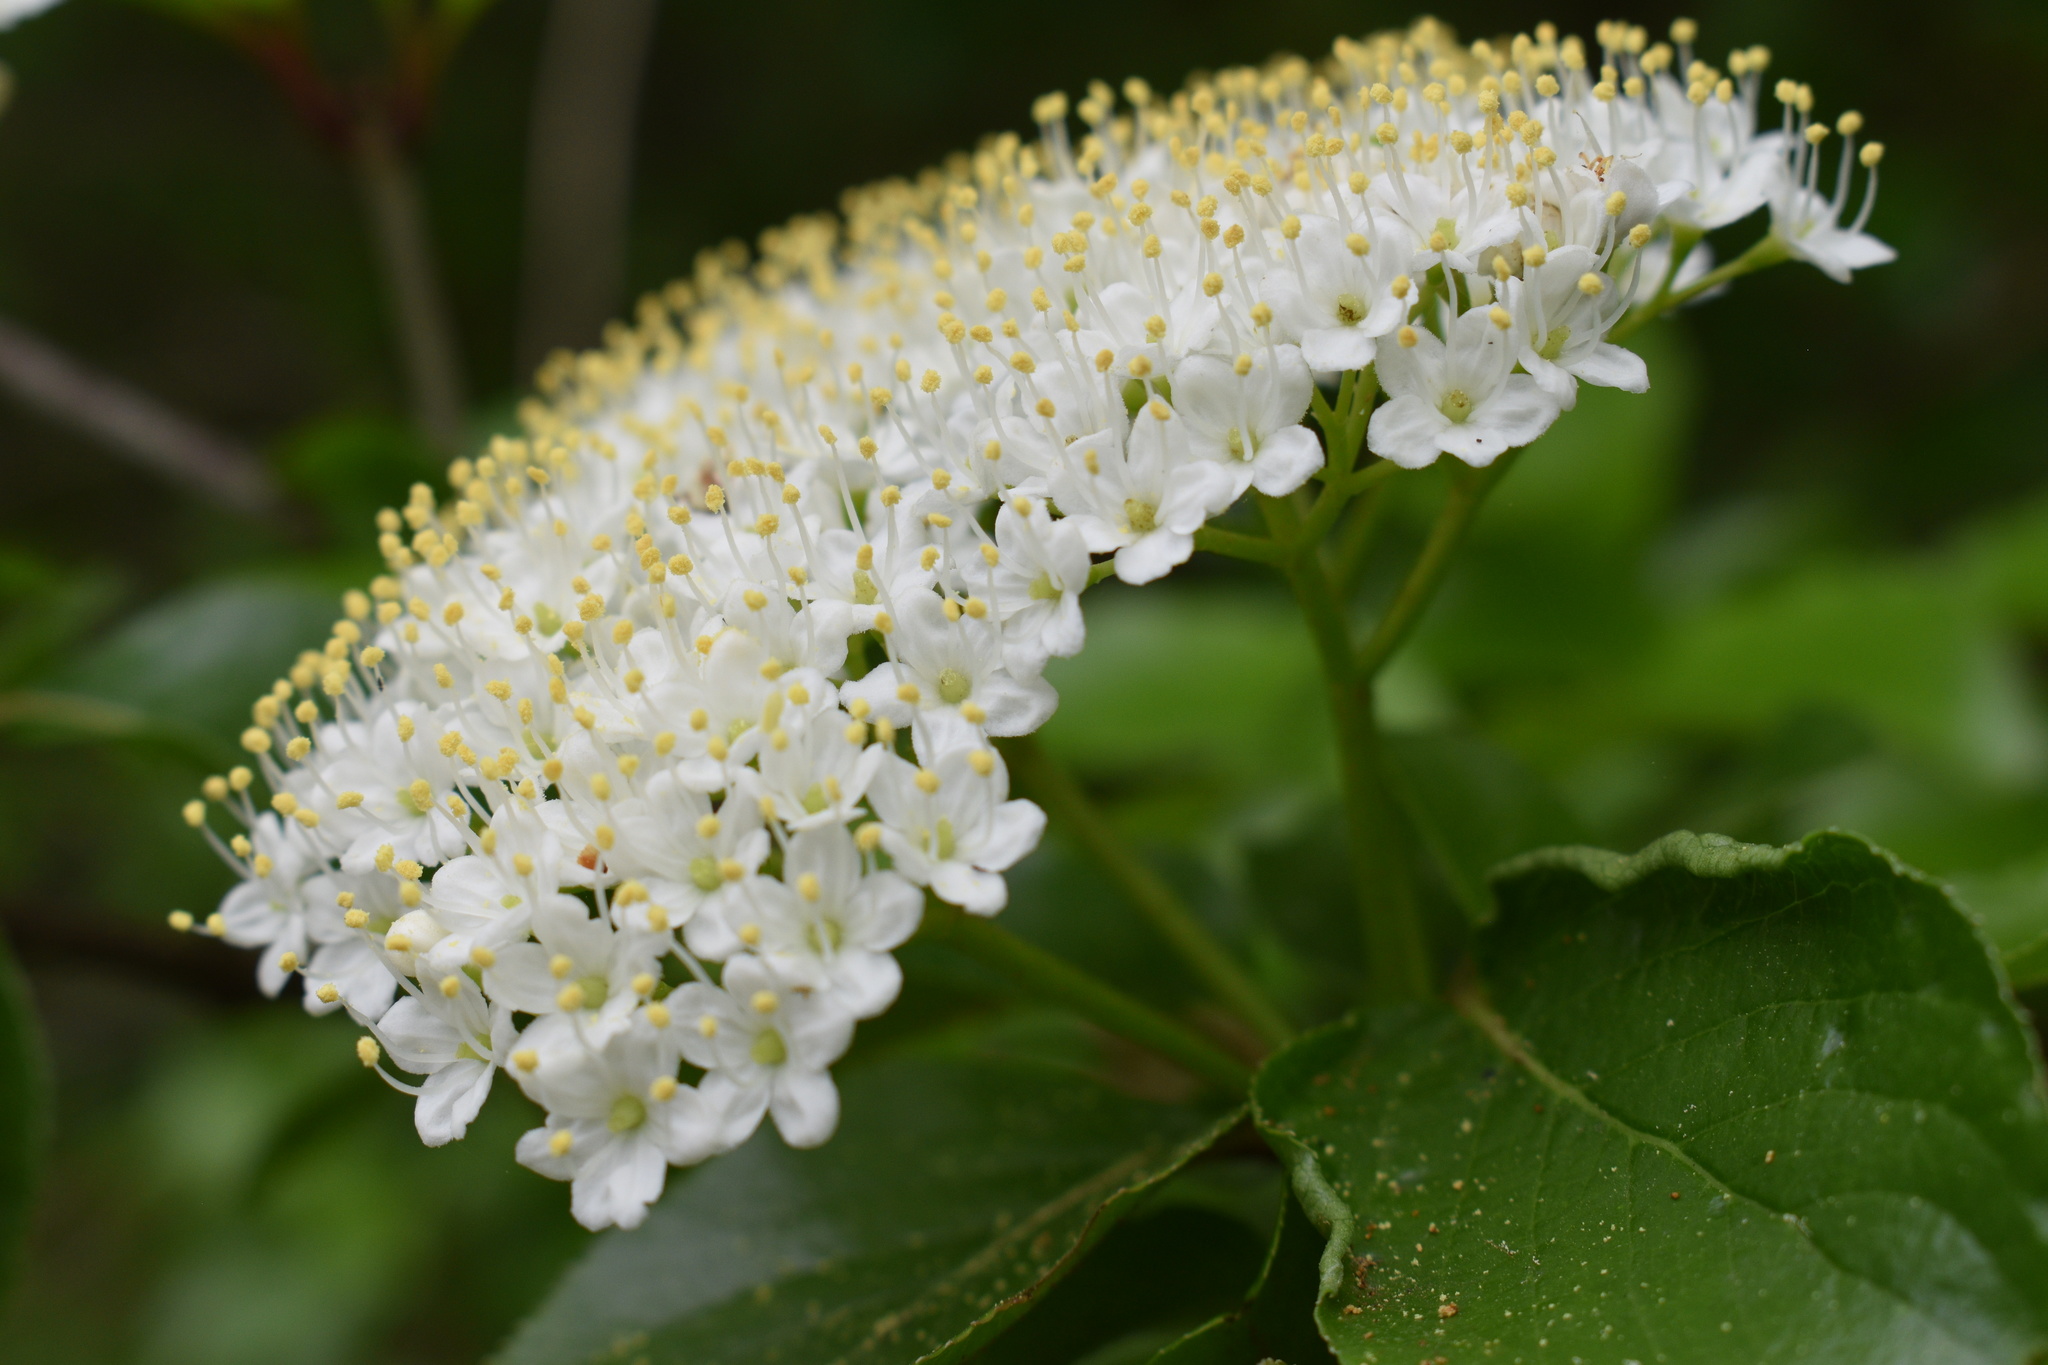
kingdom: Plantae
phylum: Tracheophyta
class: Magnoliopsida
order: Dipsacales
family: Viburnaceae
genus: Viburnum
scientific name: Viburnum rufidulum
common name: Blue haw
